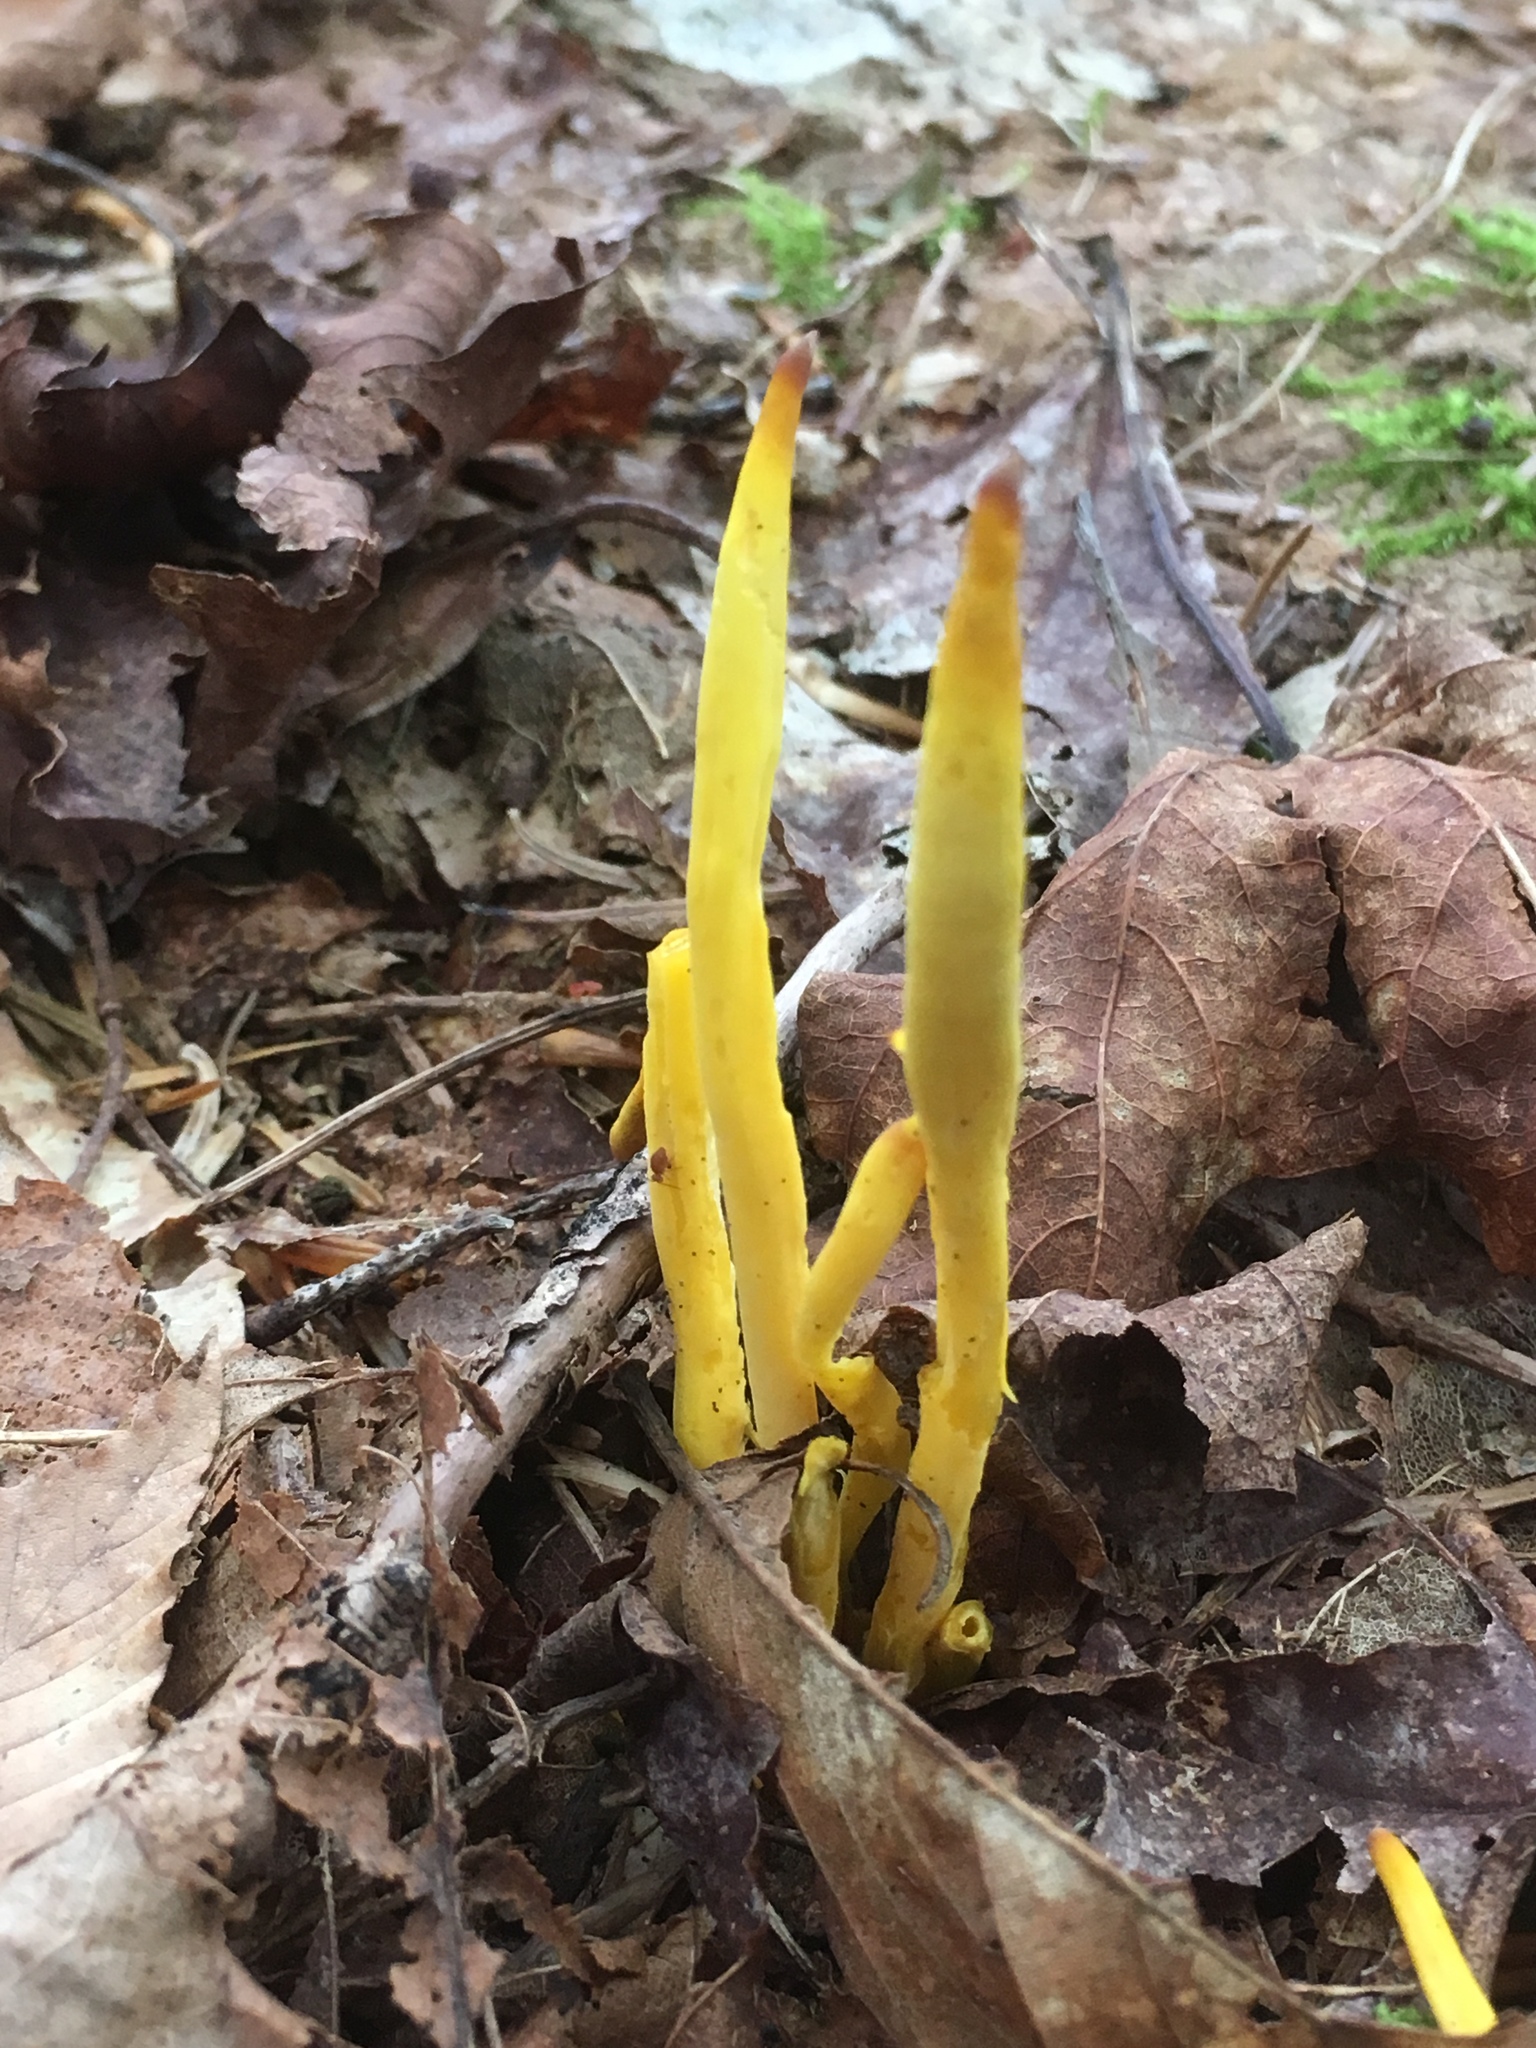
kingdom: Fungi
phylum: Basidiomycota
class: Agaricomycetes
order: Agaricales
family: Clavariaceae
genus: Clavulinopsis
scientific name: Clavulinopsis fusiformis
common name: Golden spindles
